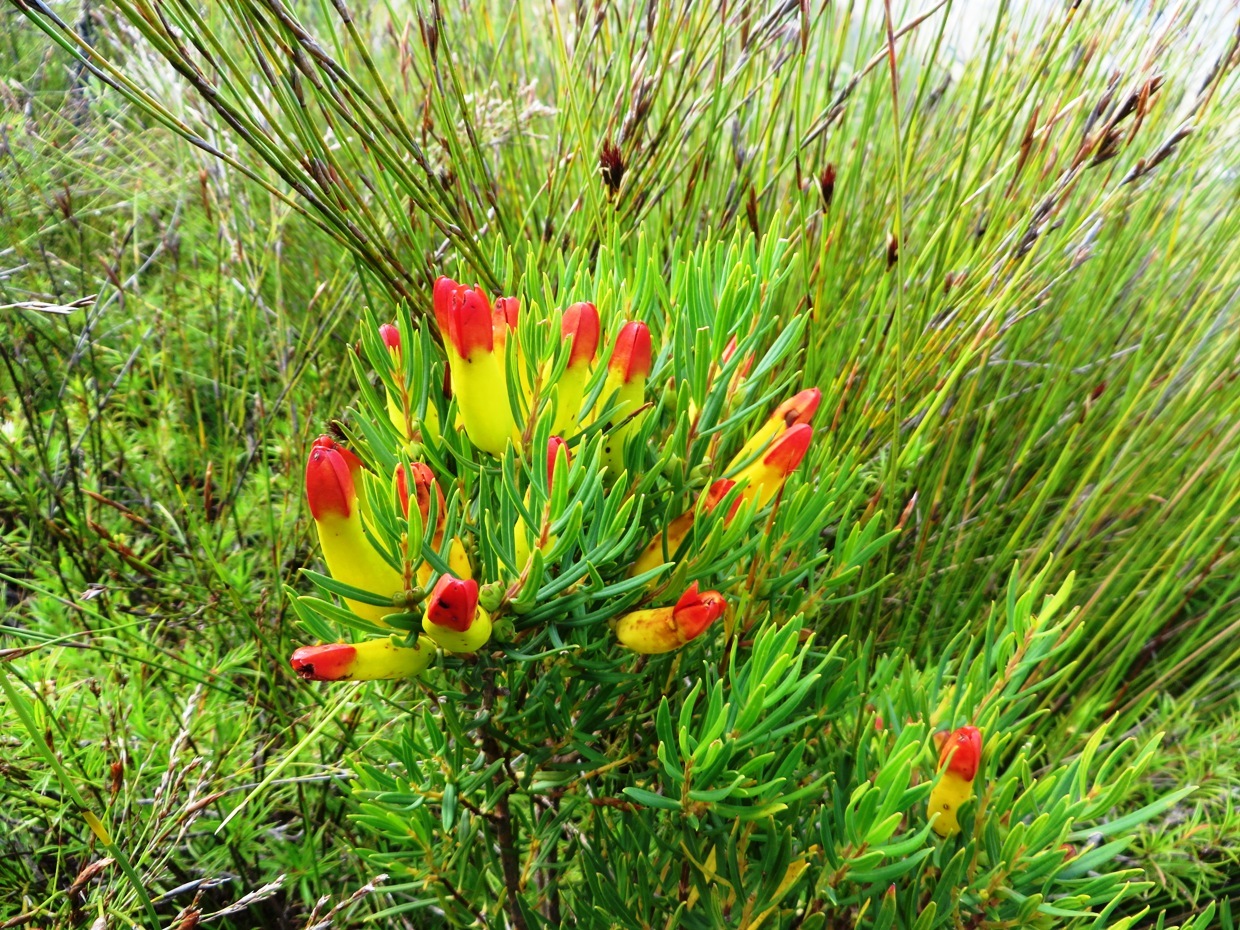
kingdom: Plantae
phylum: Tracheophyta
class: Magnoliopsida
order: Myrtales
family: Penaeaceae
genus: Endonema
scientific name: Endonema retzioides
